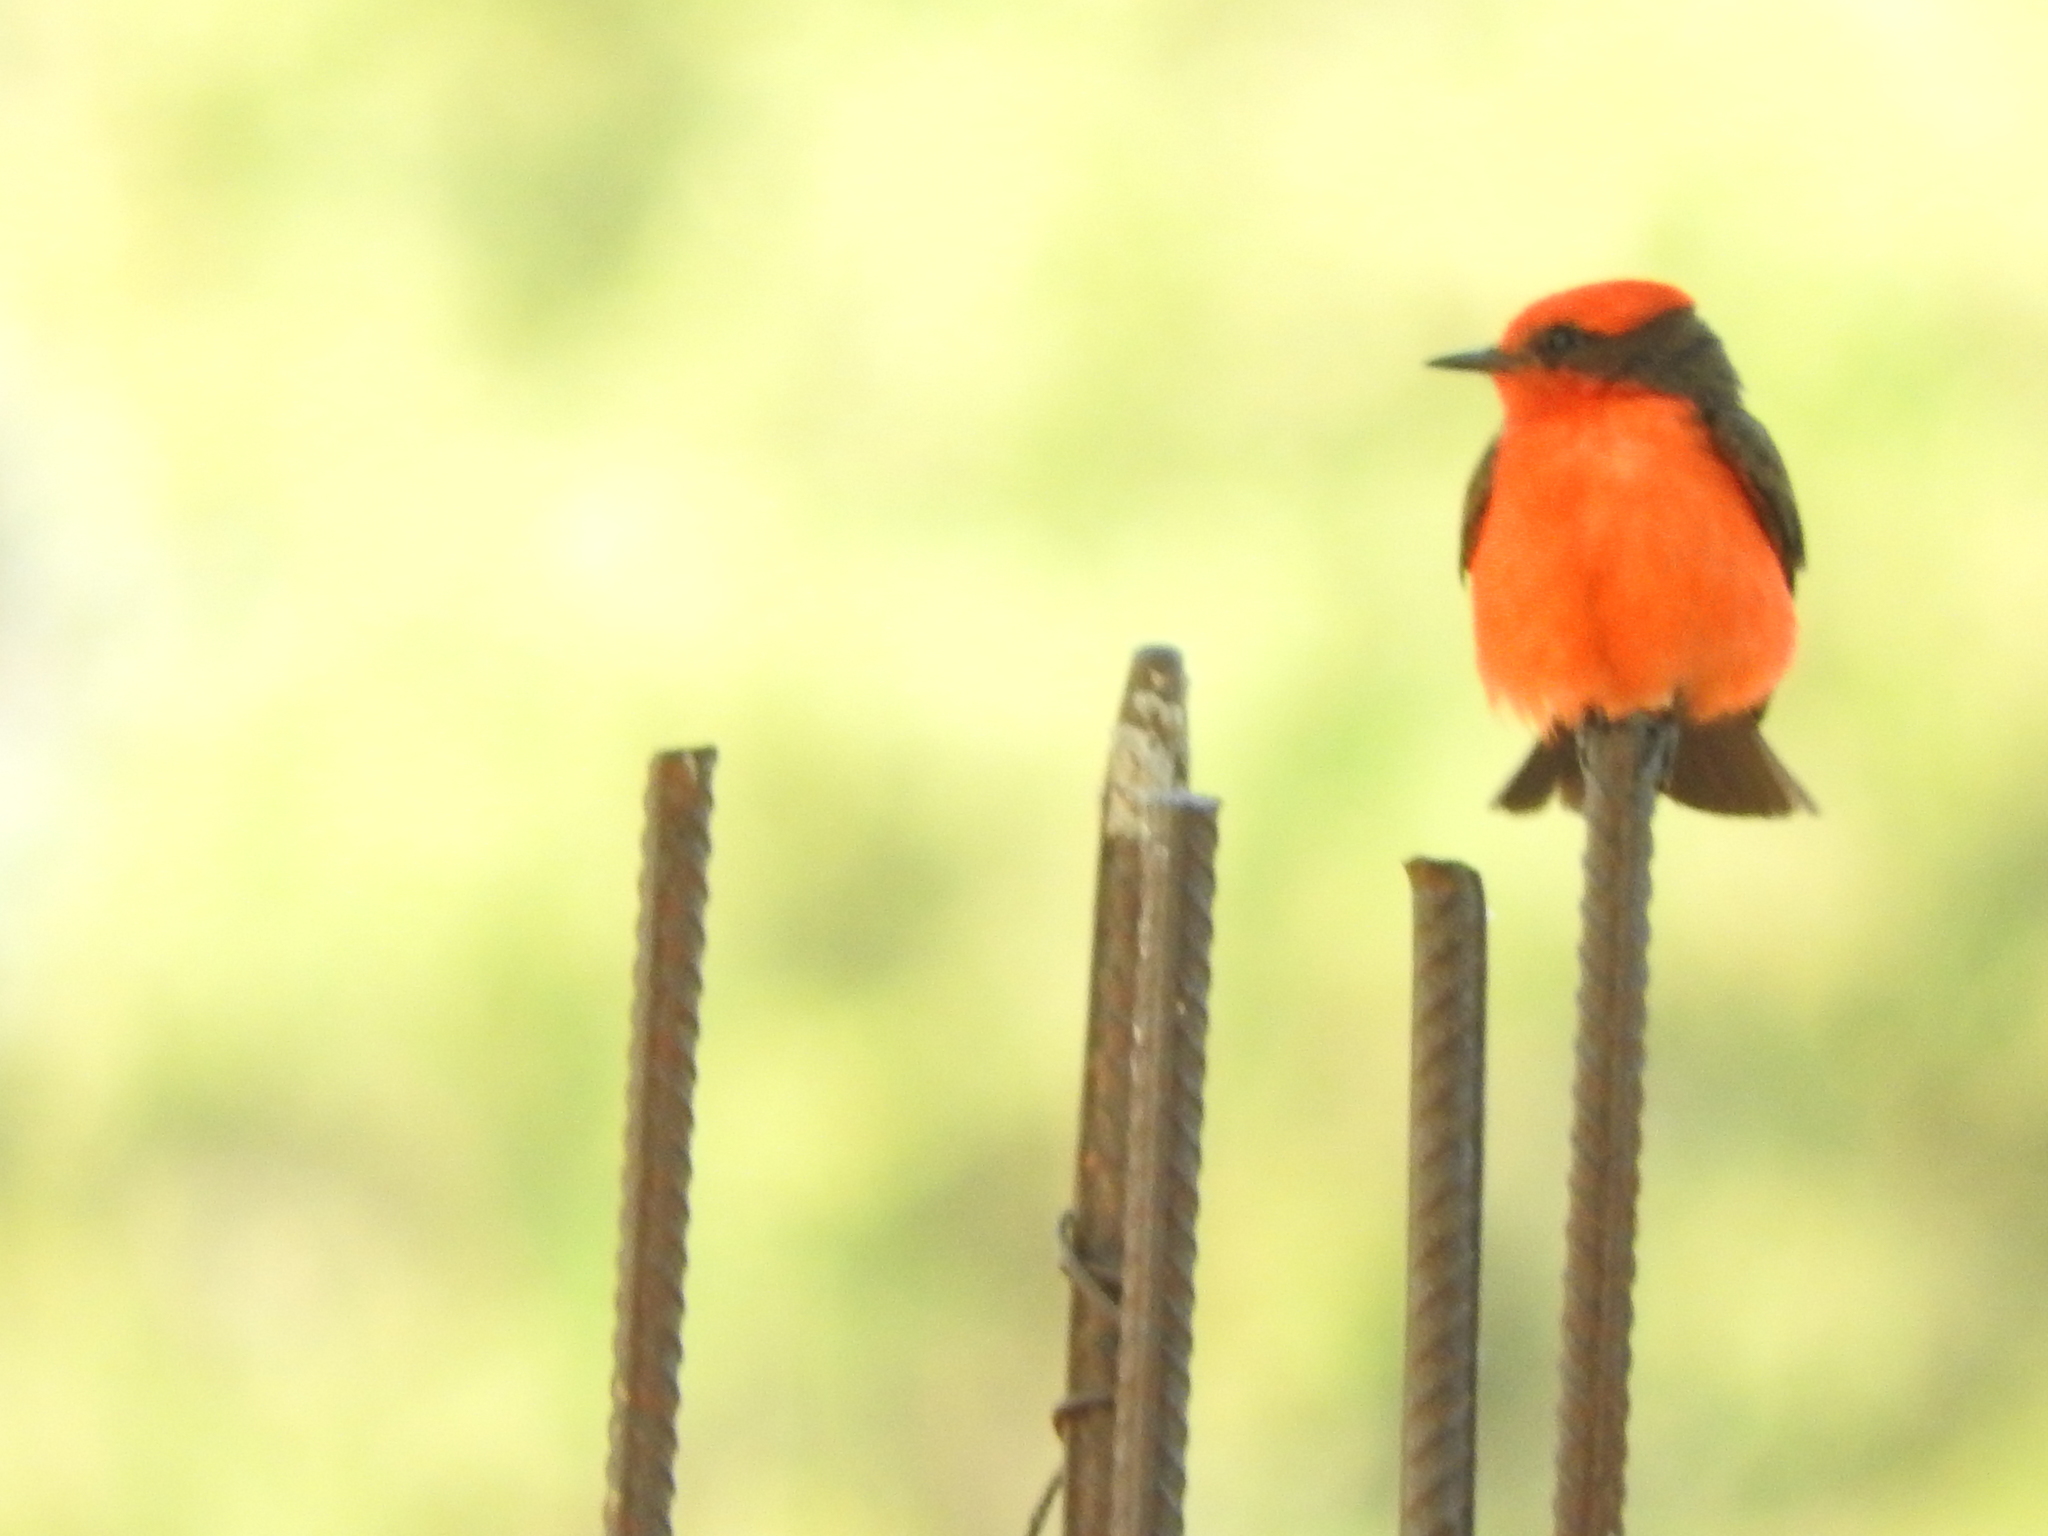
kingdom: Animalia
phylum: Chordata
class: Aves
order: Passeriformes
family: Tyrannidae
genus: Pyrocephalus
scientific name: Pyrocephalus rubinus
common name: Vermilion flycatcher
